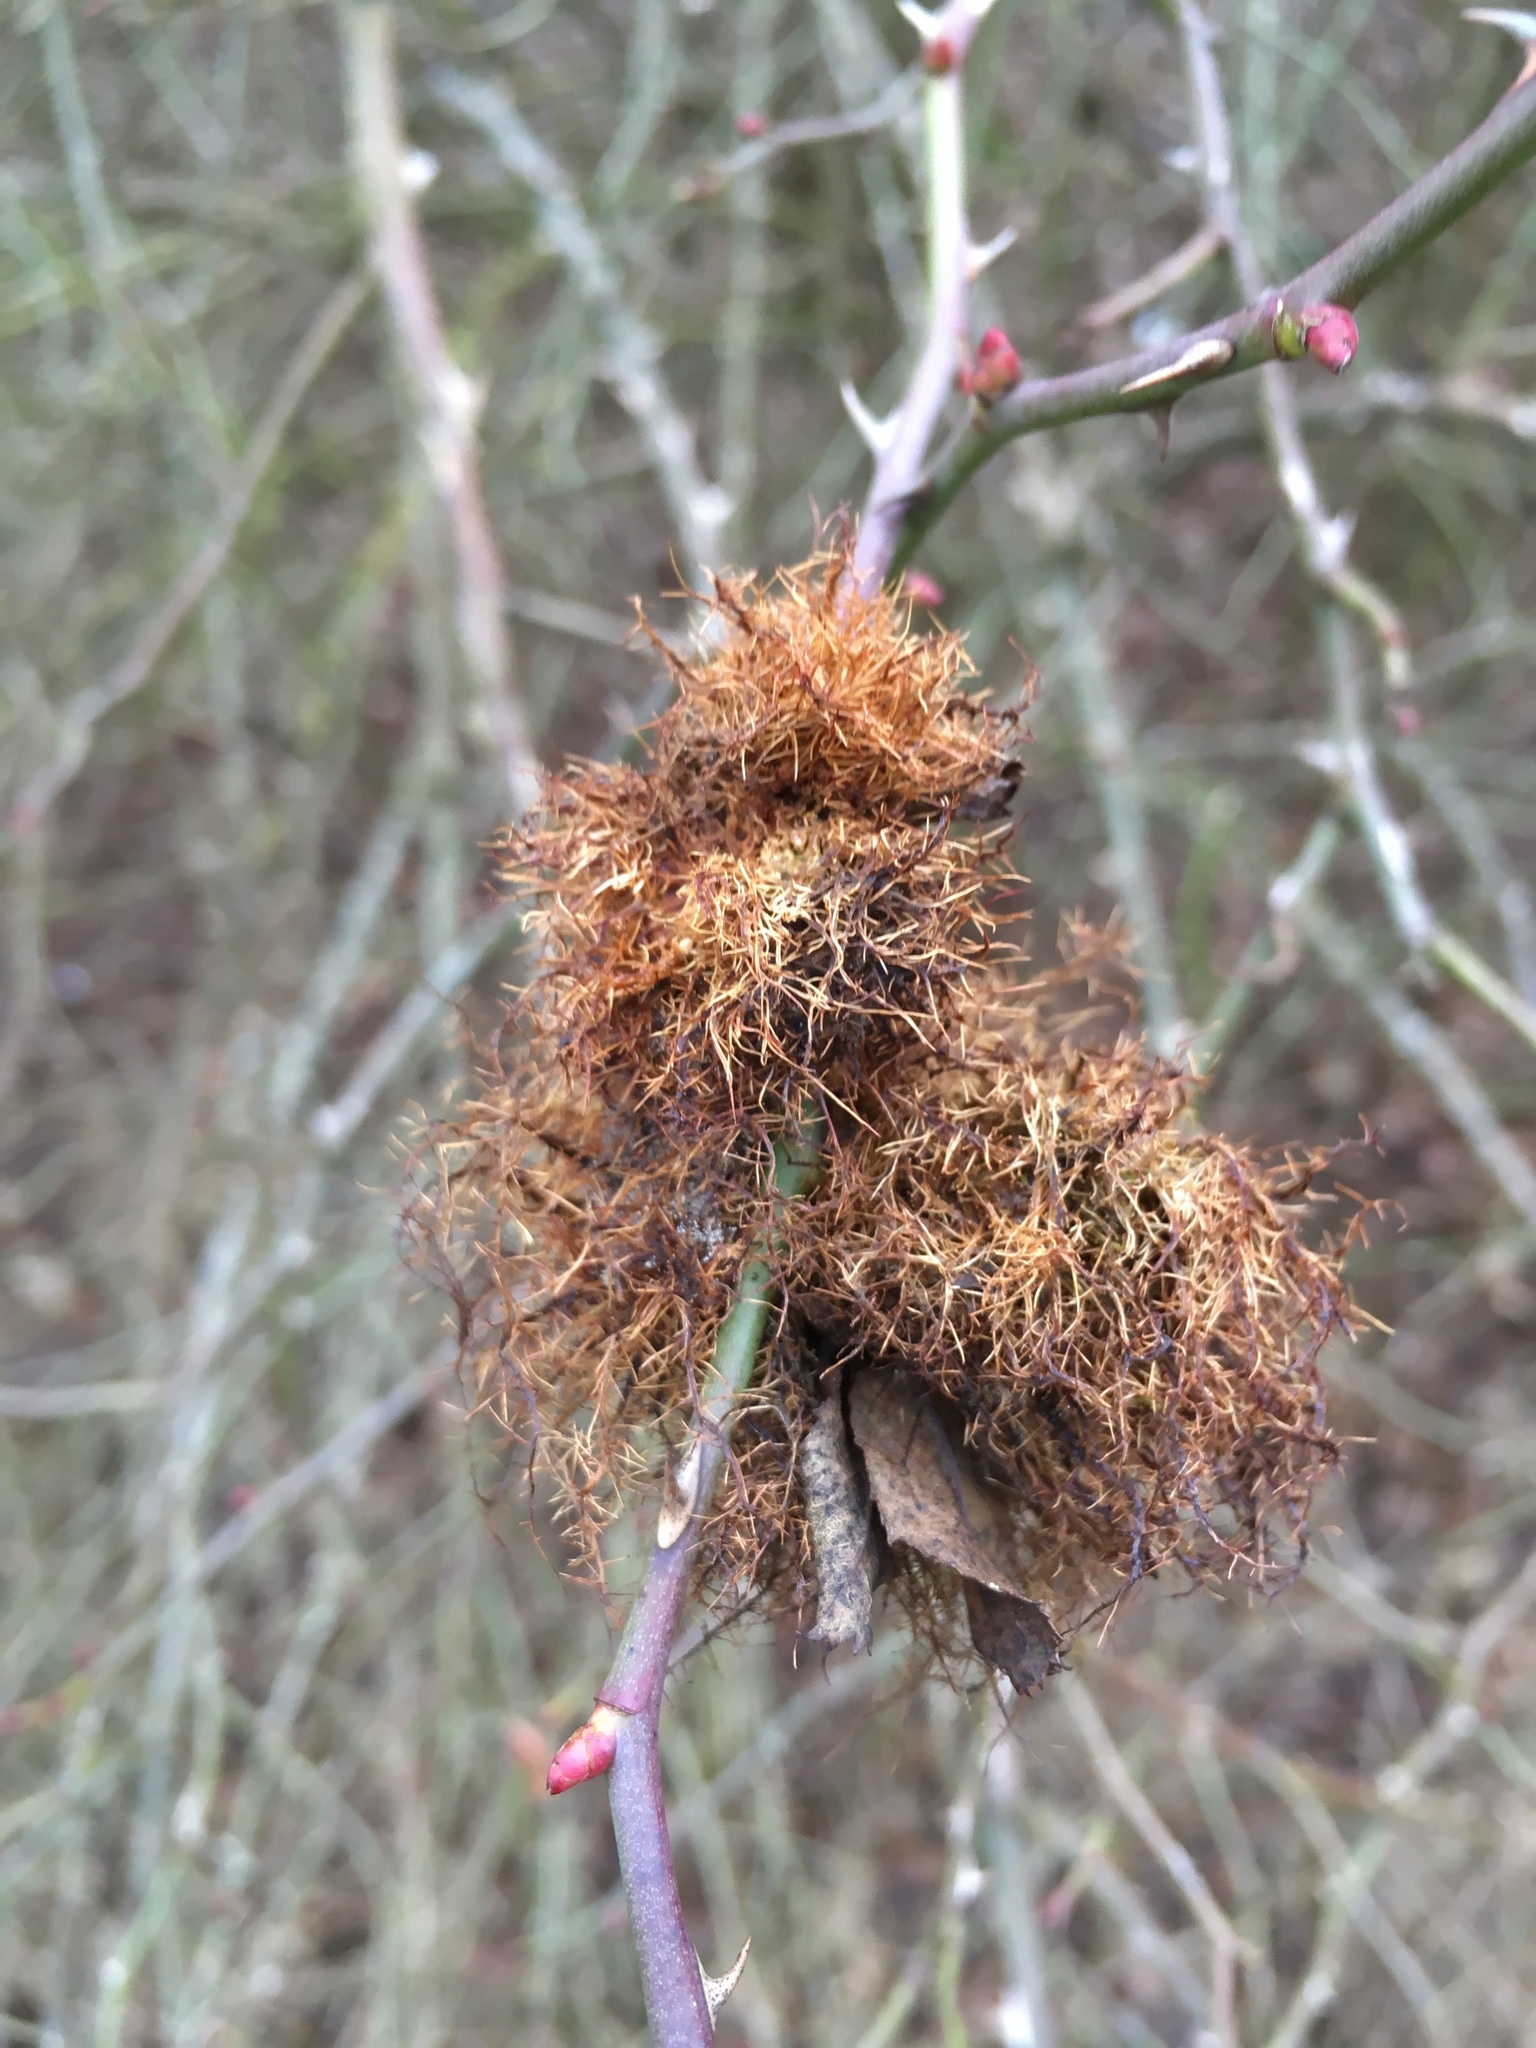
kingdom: Animalia
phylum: Arthropoda
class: Insecta
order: Hymenoptera
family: Cynipidae
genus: Diplolepis
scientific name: Diplolepis rosae
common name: Bedeguar gall
